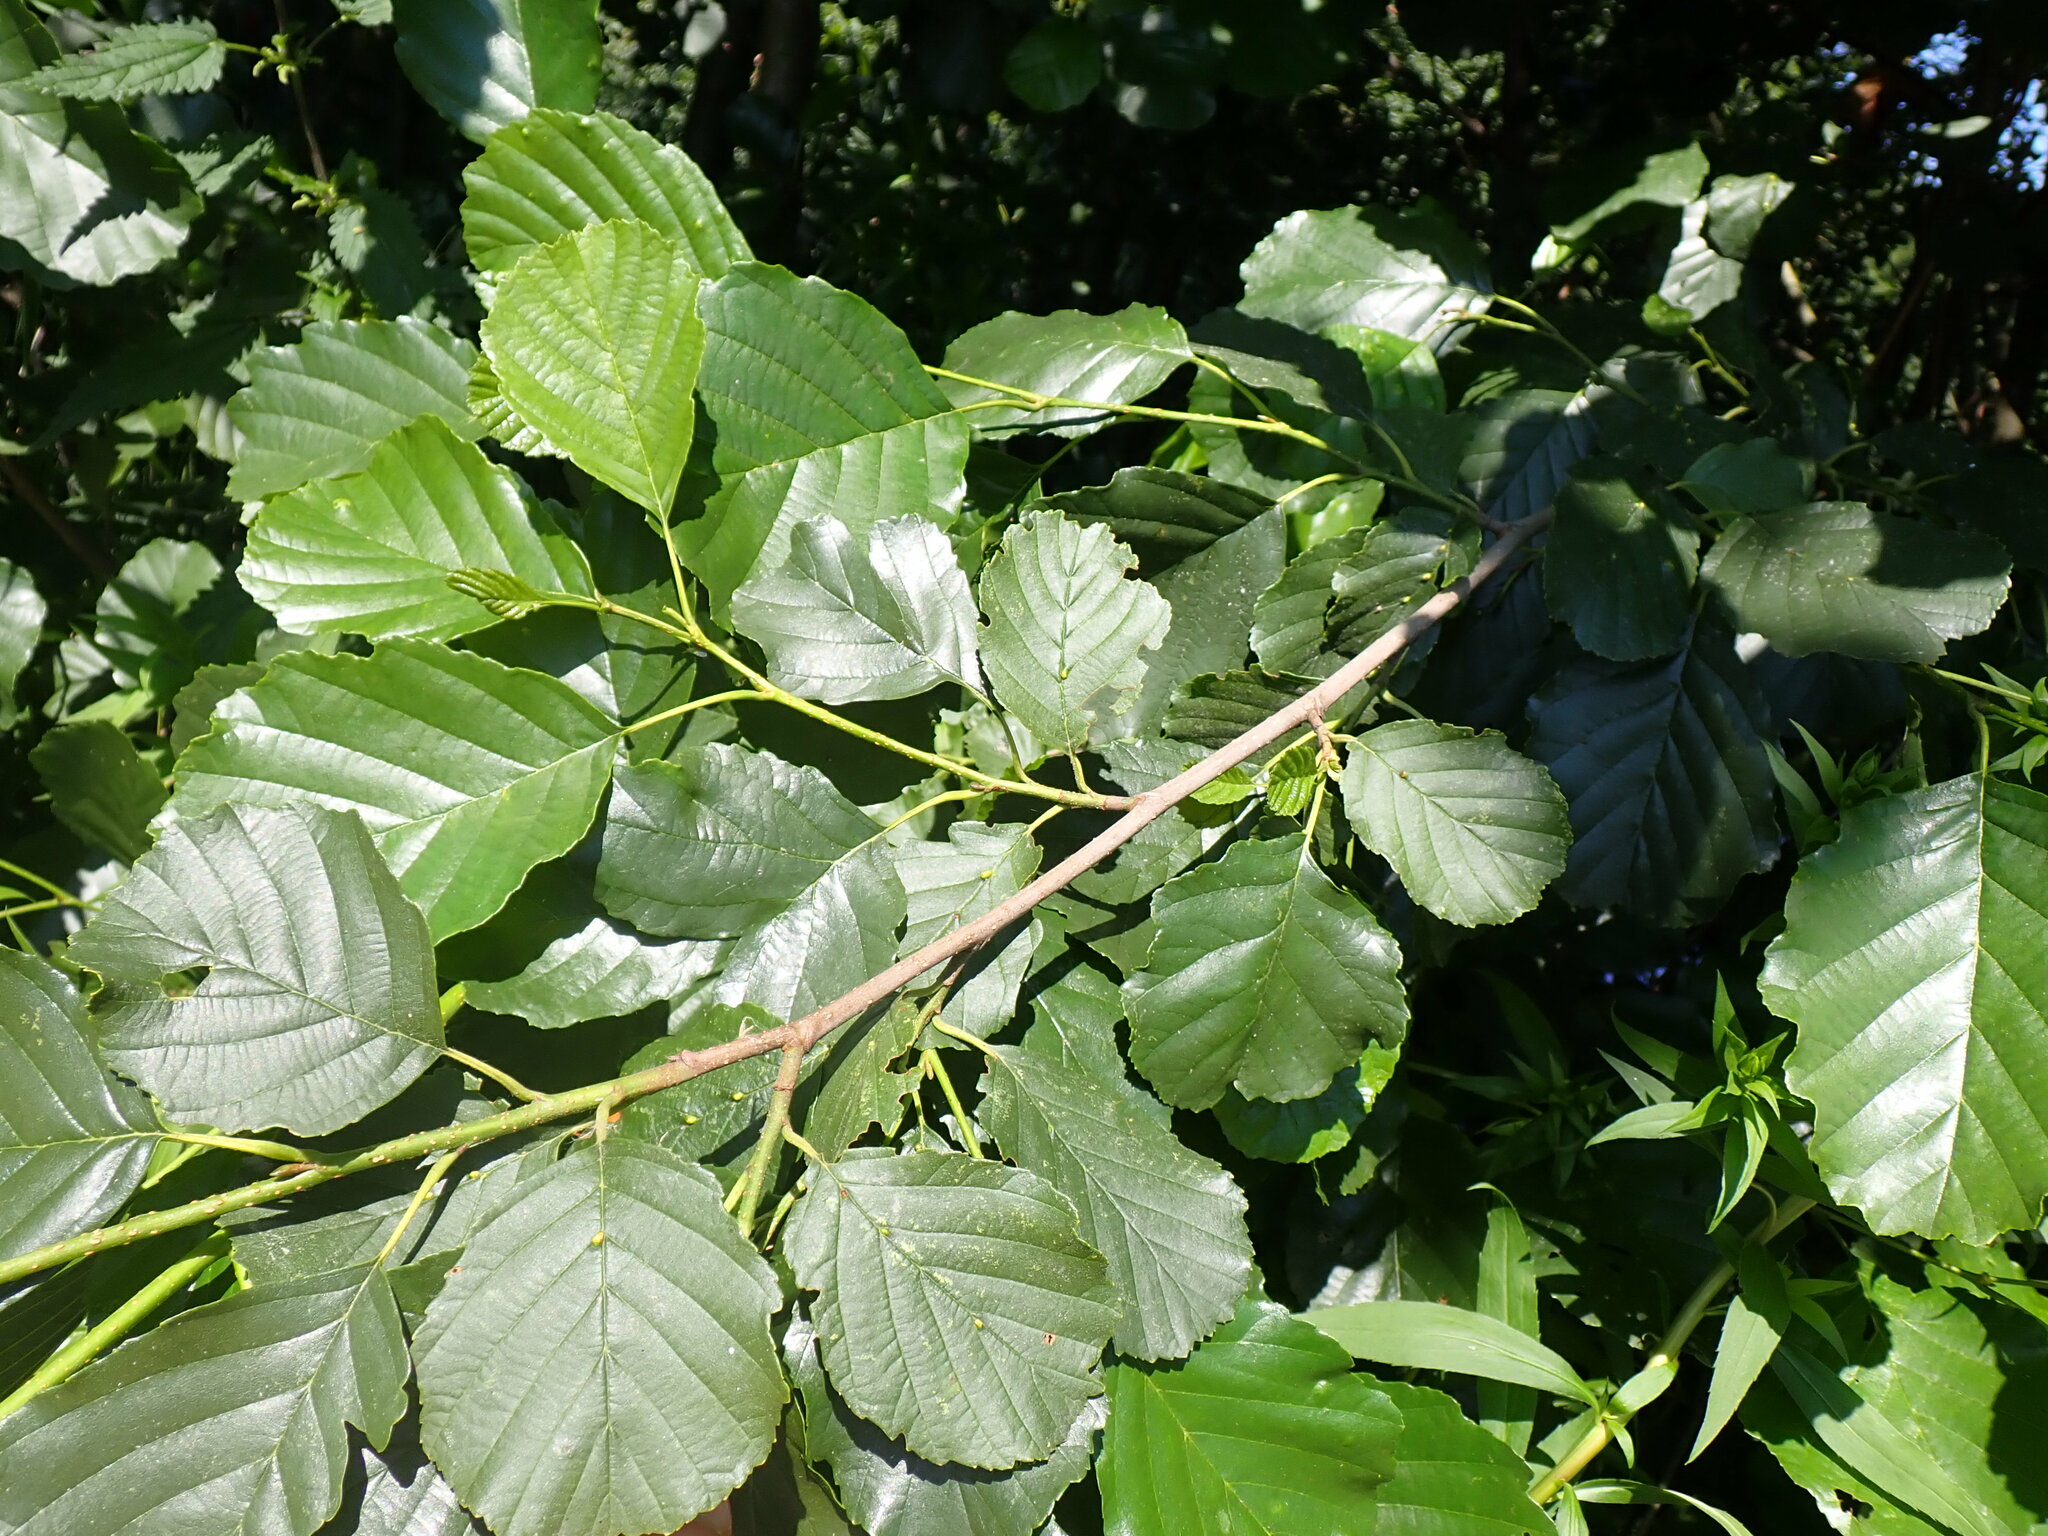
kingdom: Plantae
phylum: Tracheophyta
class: Magnoliopsida
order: Fagales
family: Betulaceae
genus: Alnus
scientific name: Alnus glutinosa
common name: Black alder
